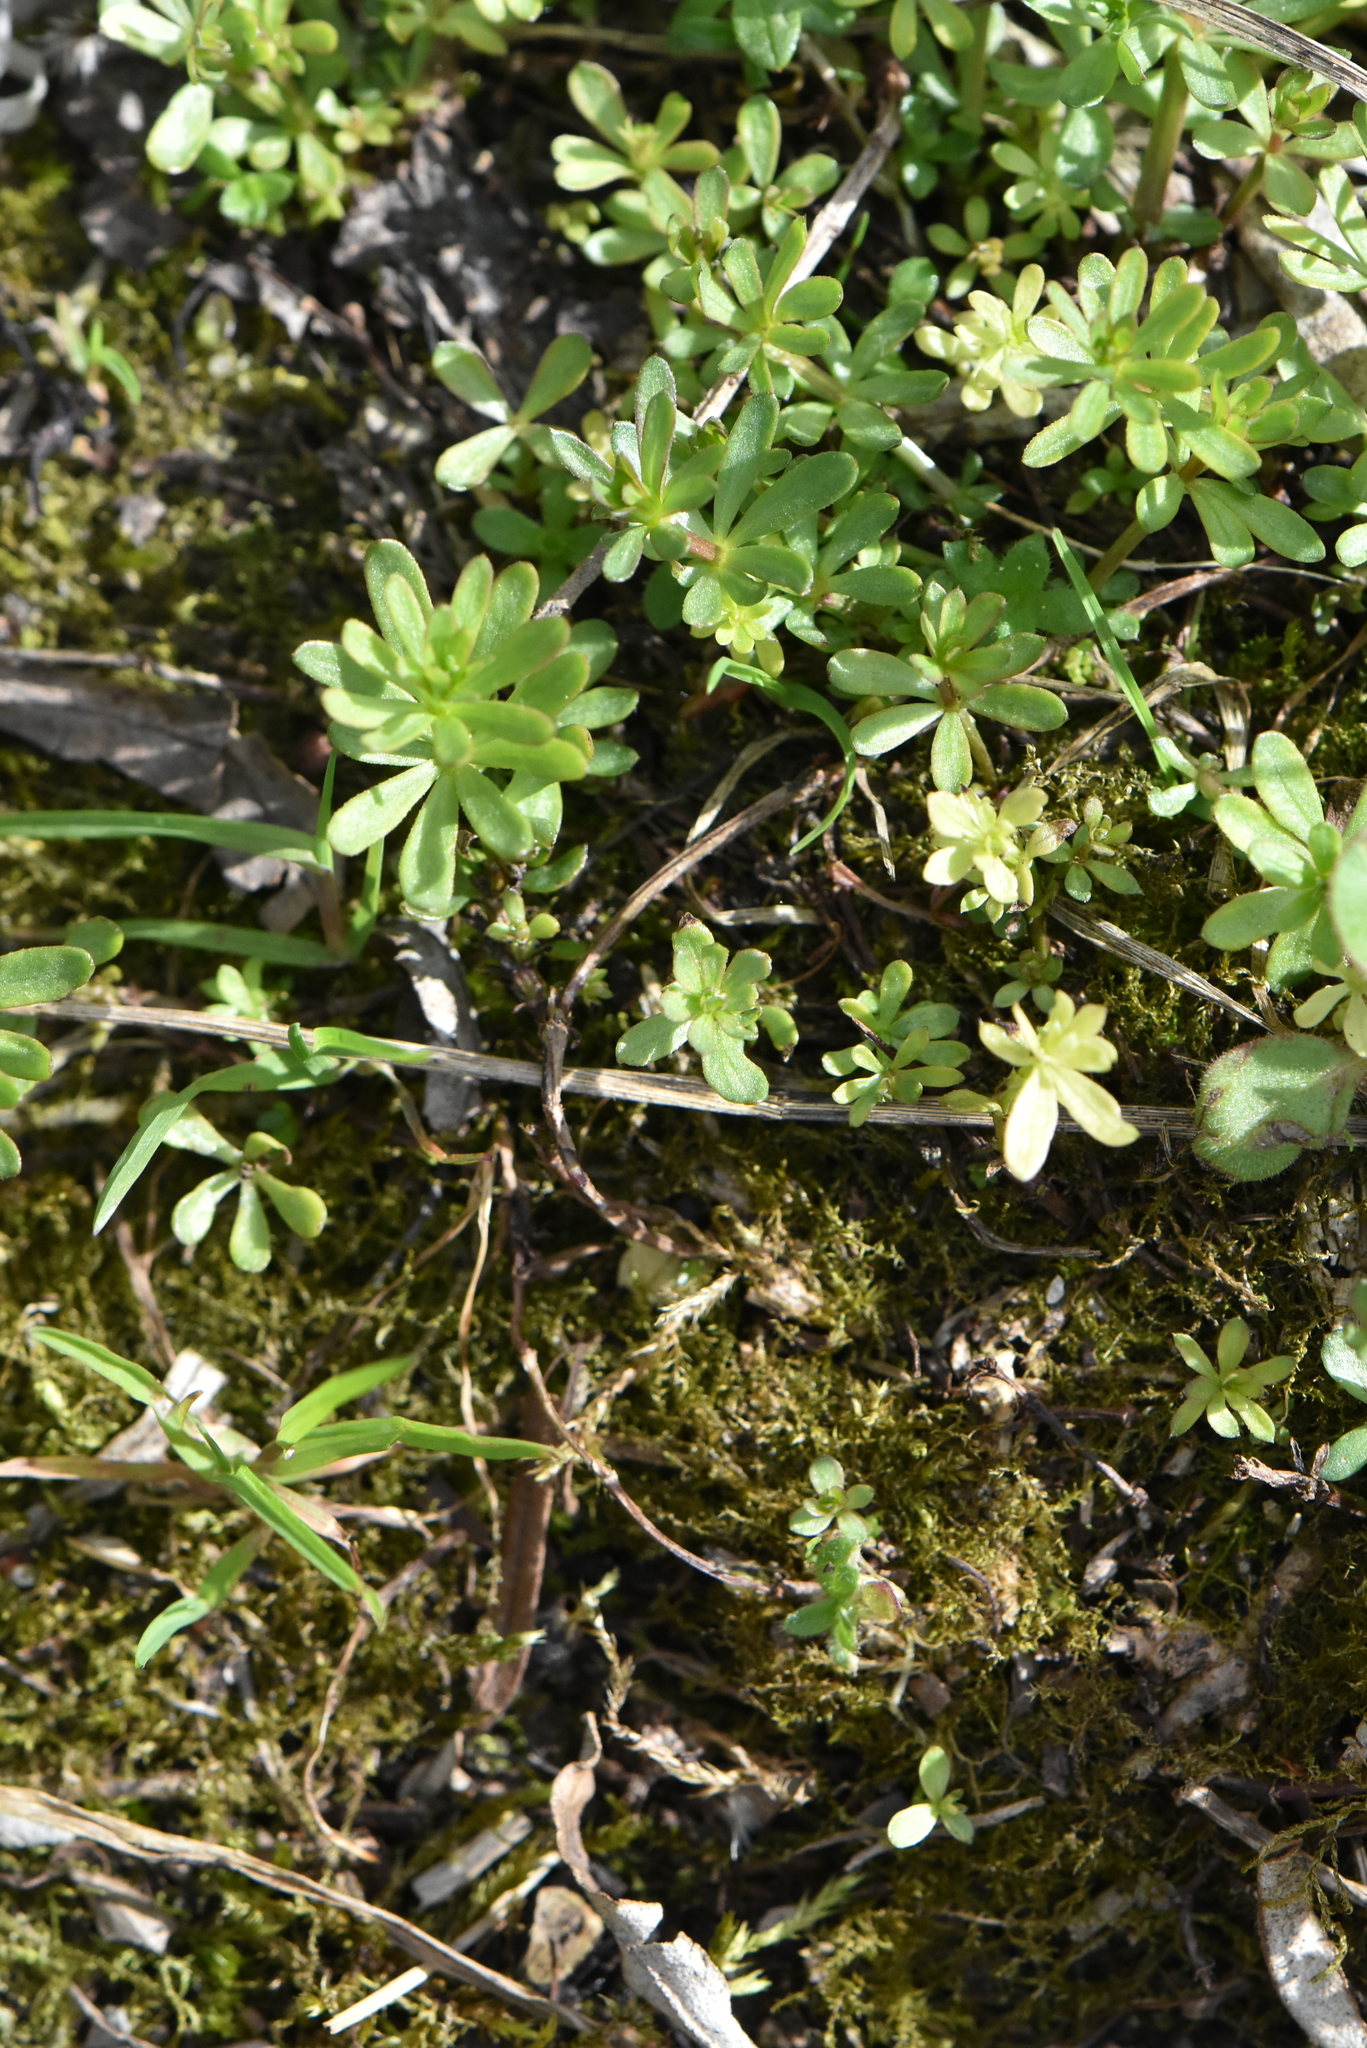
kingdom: Plantae
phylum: Tracheophyta
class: Magnoliopsida
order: Gentianales
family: Rubiaceae
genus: Galium
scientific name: Galium mollugo
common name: Hedge bedstraw
